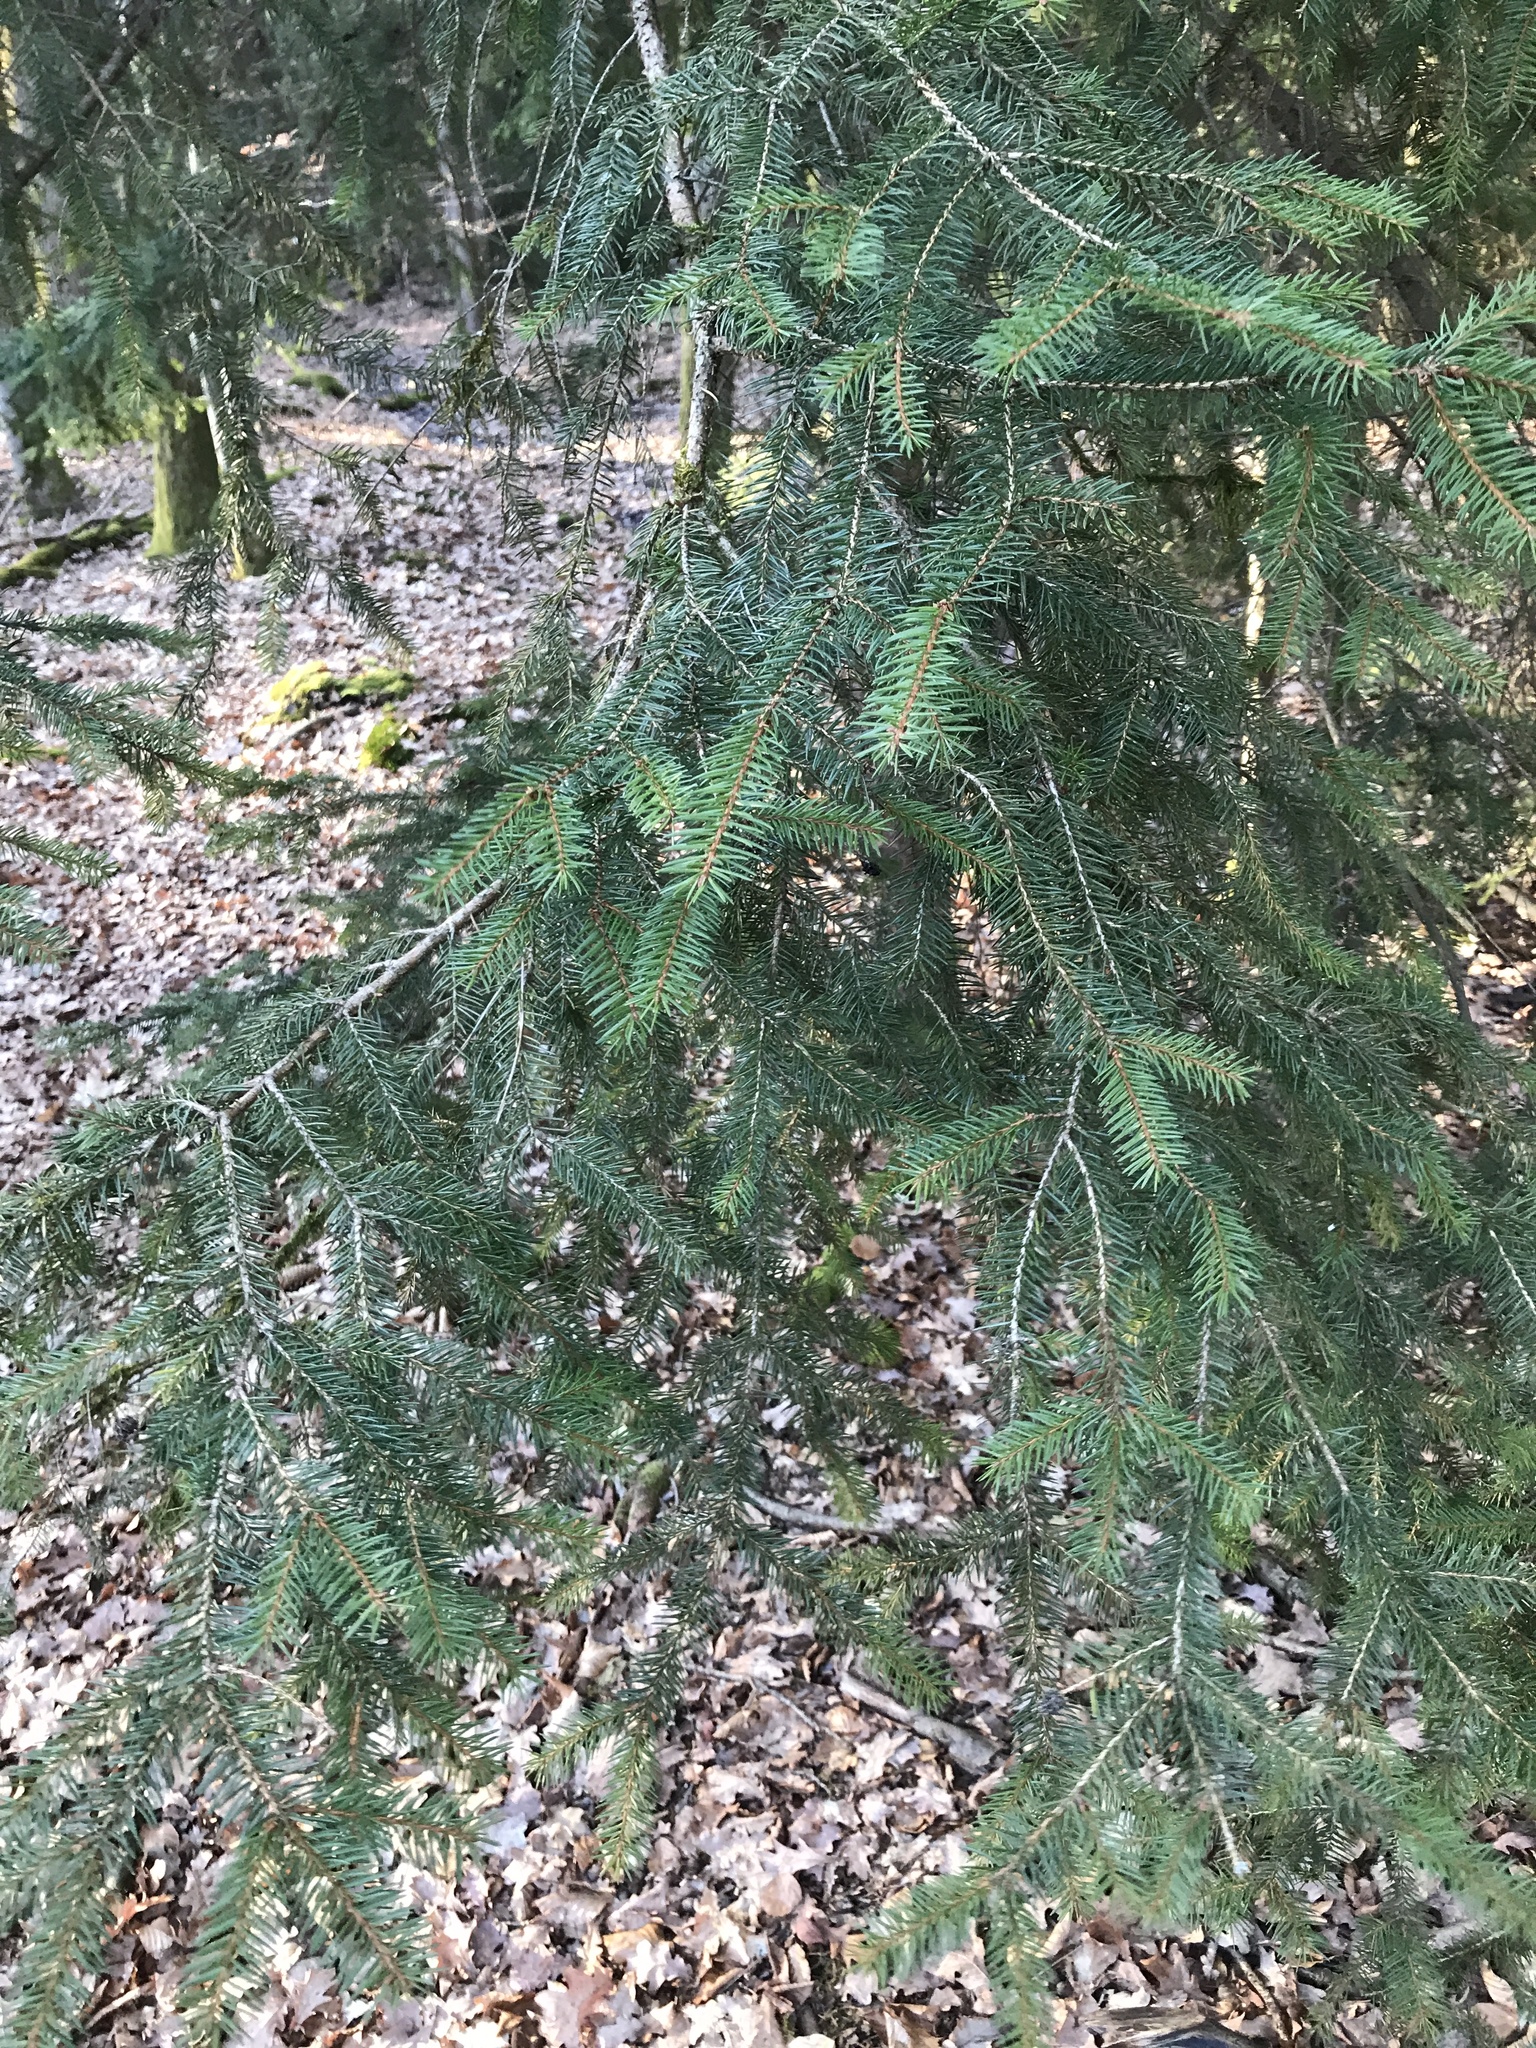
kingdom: Plantae
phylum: Tracheophyta
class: Pinopsida
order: Pinales
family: Pinaceae
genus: Picea
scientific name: Picea abies
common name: Norway spruce
